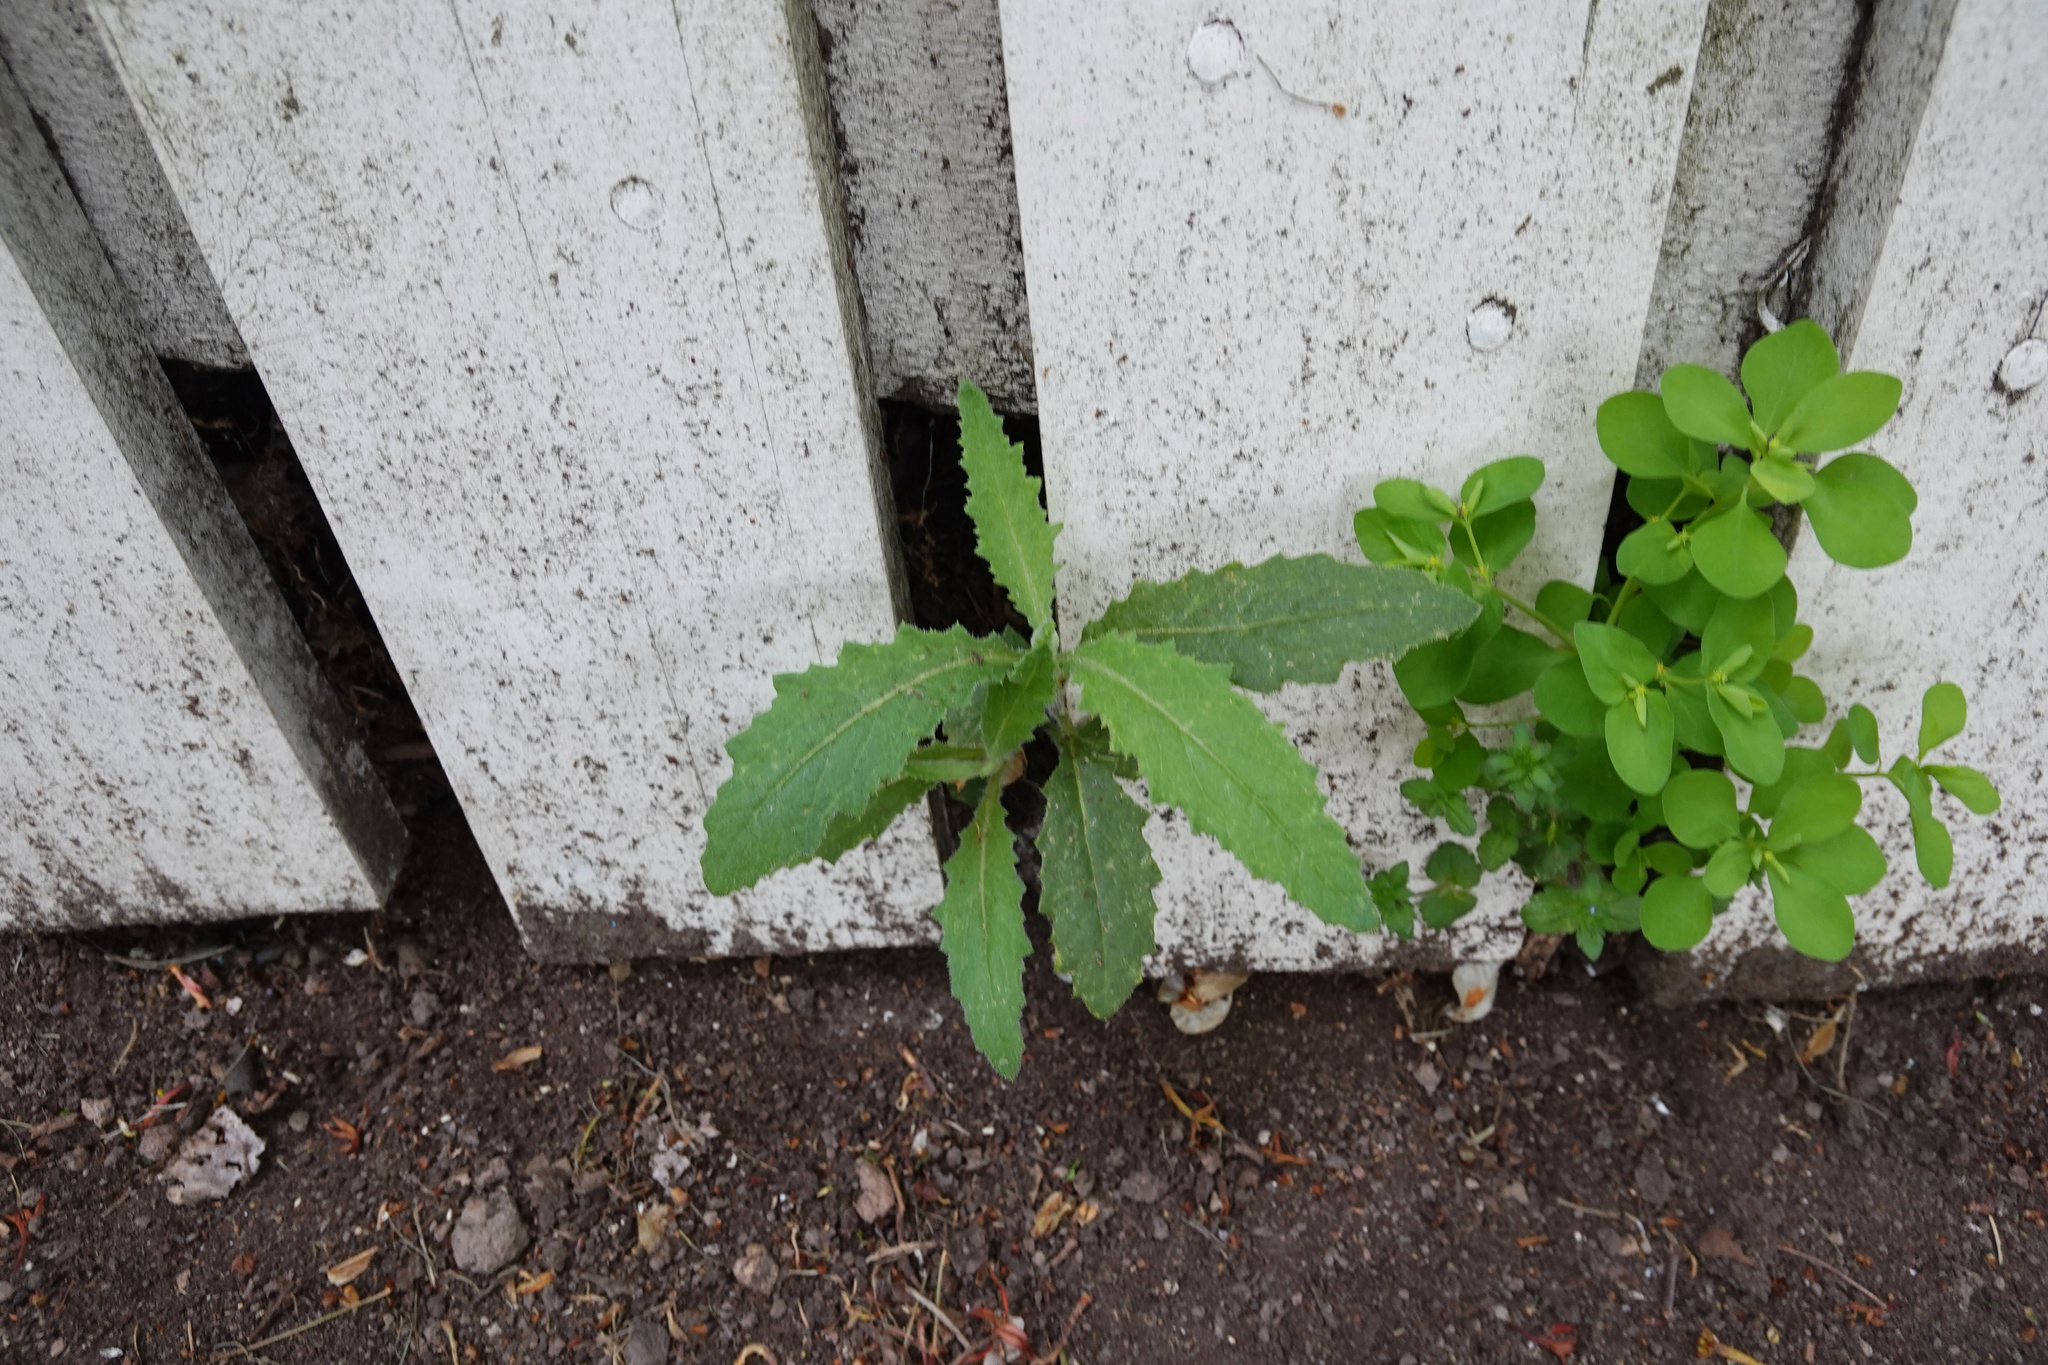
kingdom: Plantae
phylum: Tracheophyta
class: Magnoliopsida
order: Asterales
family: Asteraceae
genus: Senecio
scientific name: Senecio minimus
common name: Toothed fireweed
